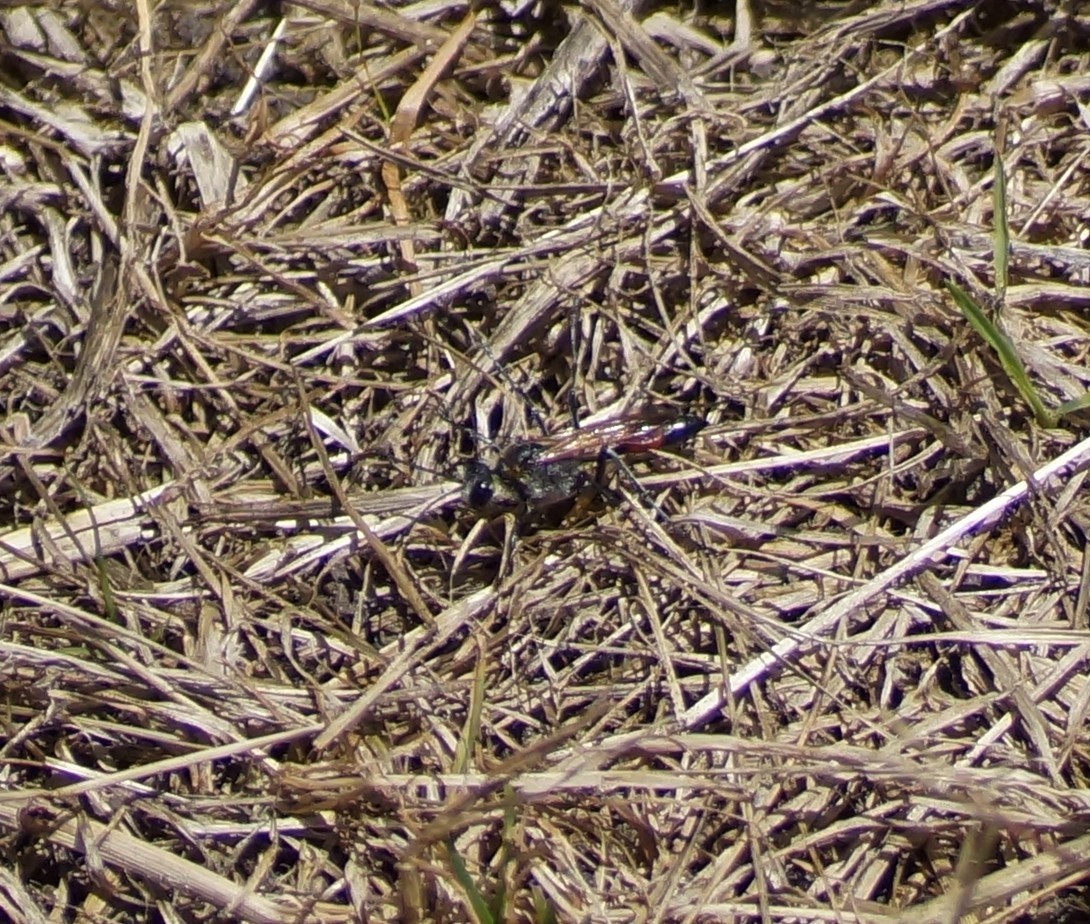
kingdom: Animalia
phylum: Arthropoda
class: Insecta
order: Hymenoptera
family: Sphecidae
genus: Podalonia
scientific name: Podalonia tydei
